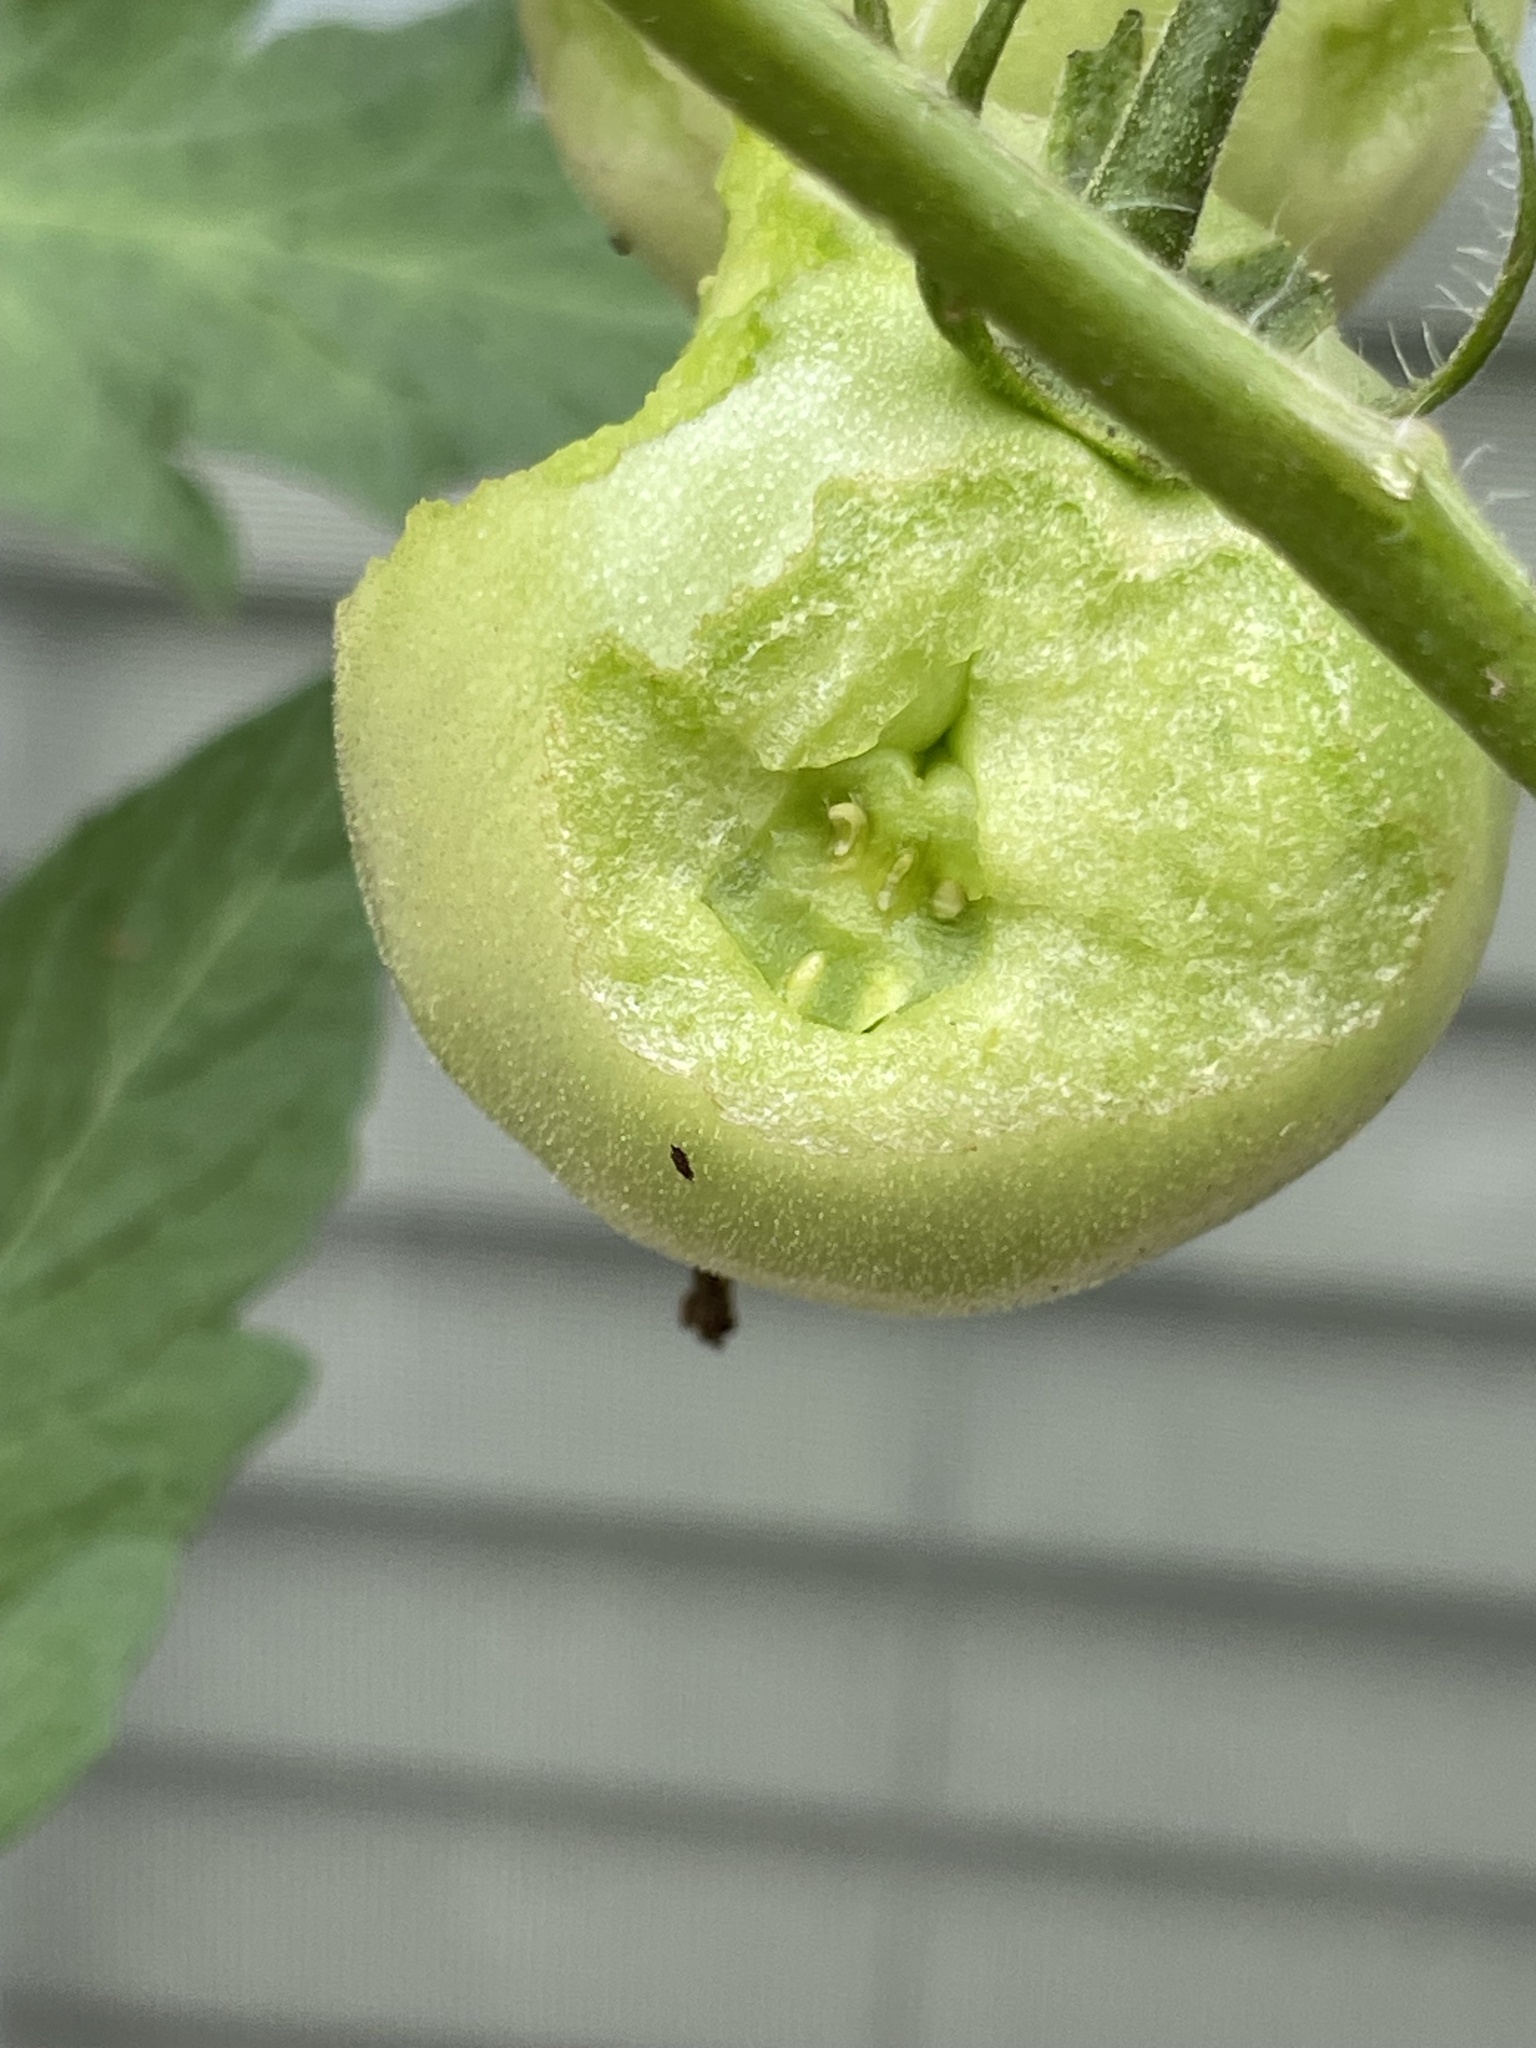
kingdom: Animalia
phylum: Arthropoda
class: Insecta
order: Lepidoptera
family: Sphingidae
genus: Manduca
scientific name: Manduca sexta
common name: Carolina sphinx
